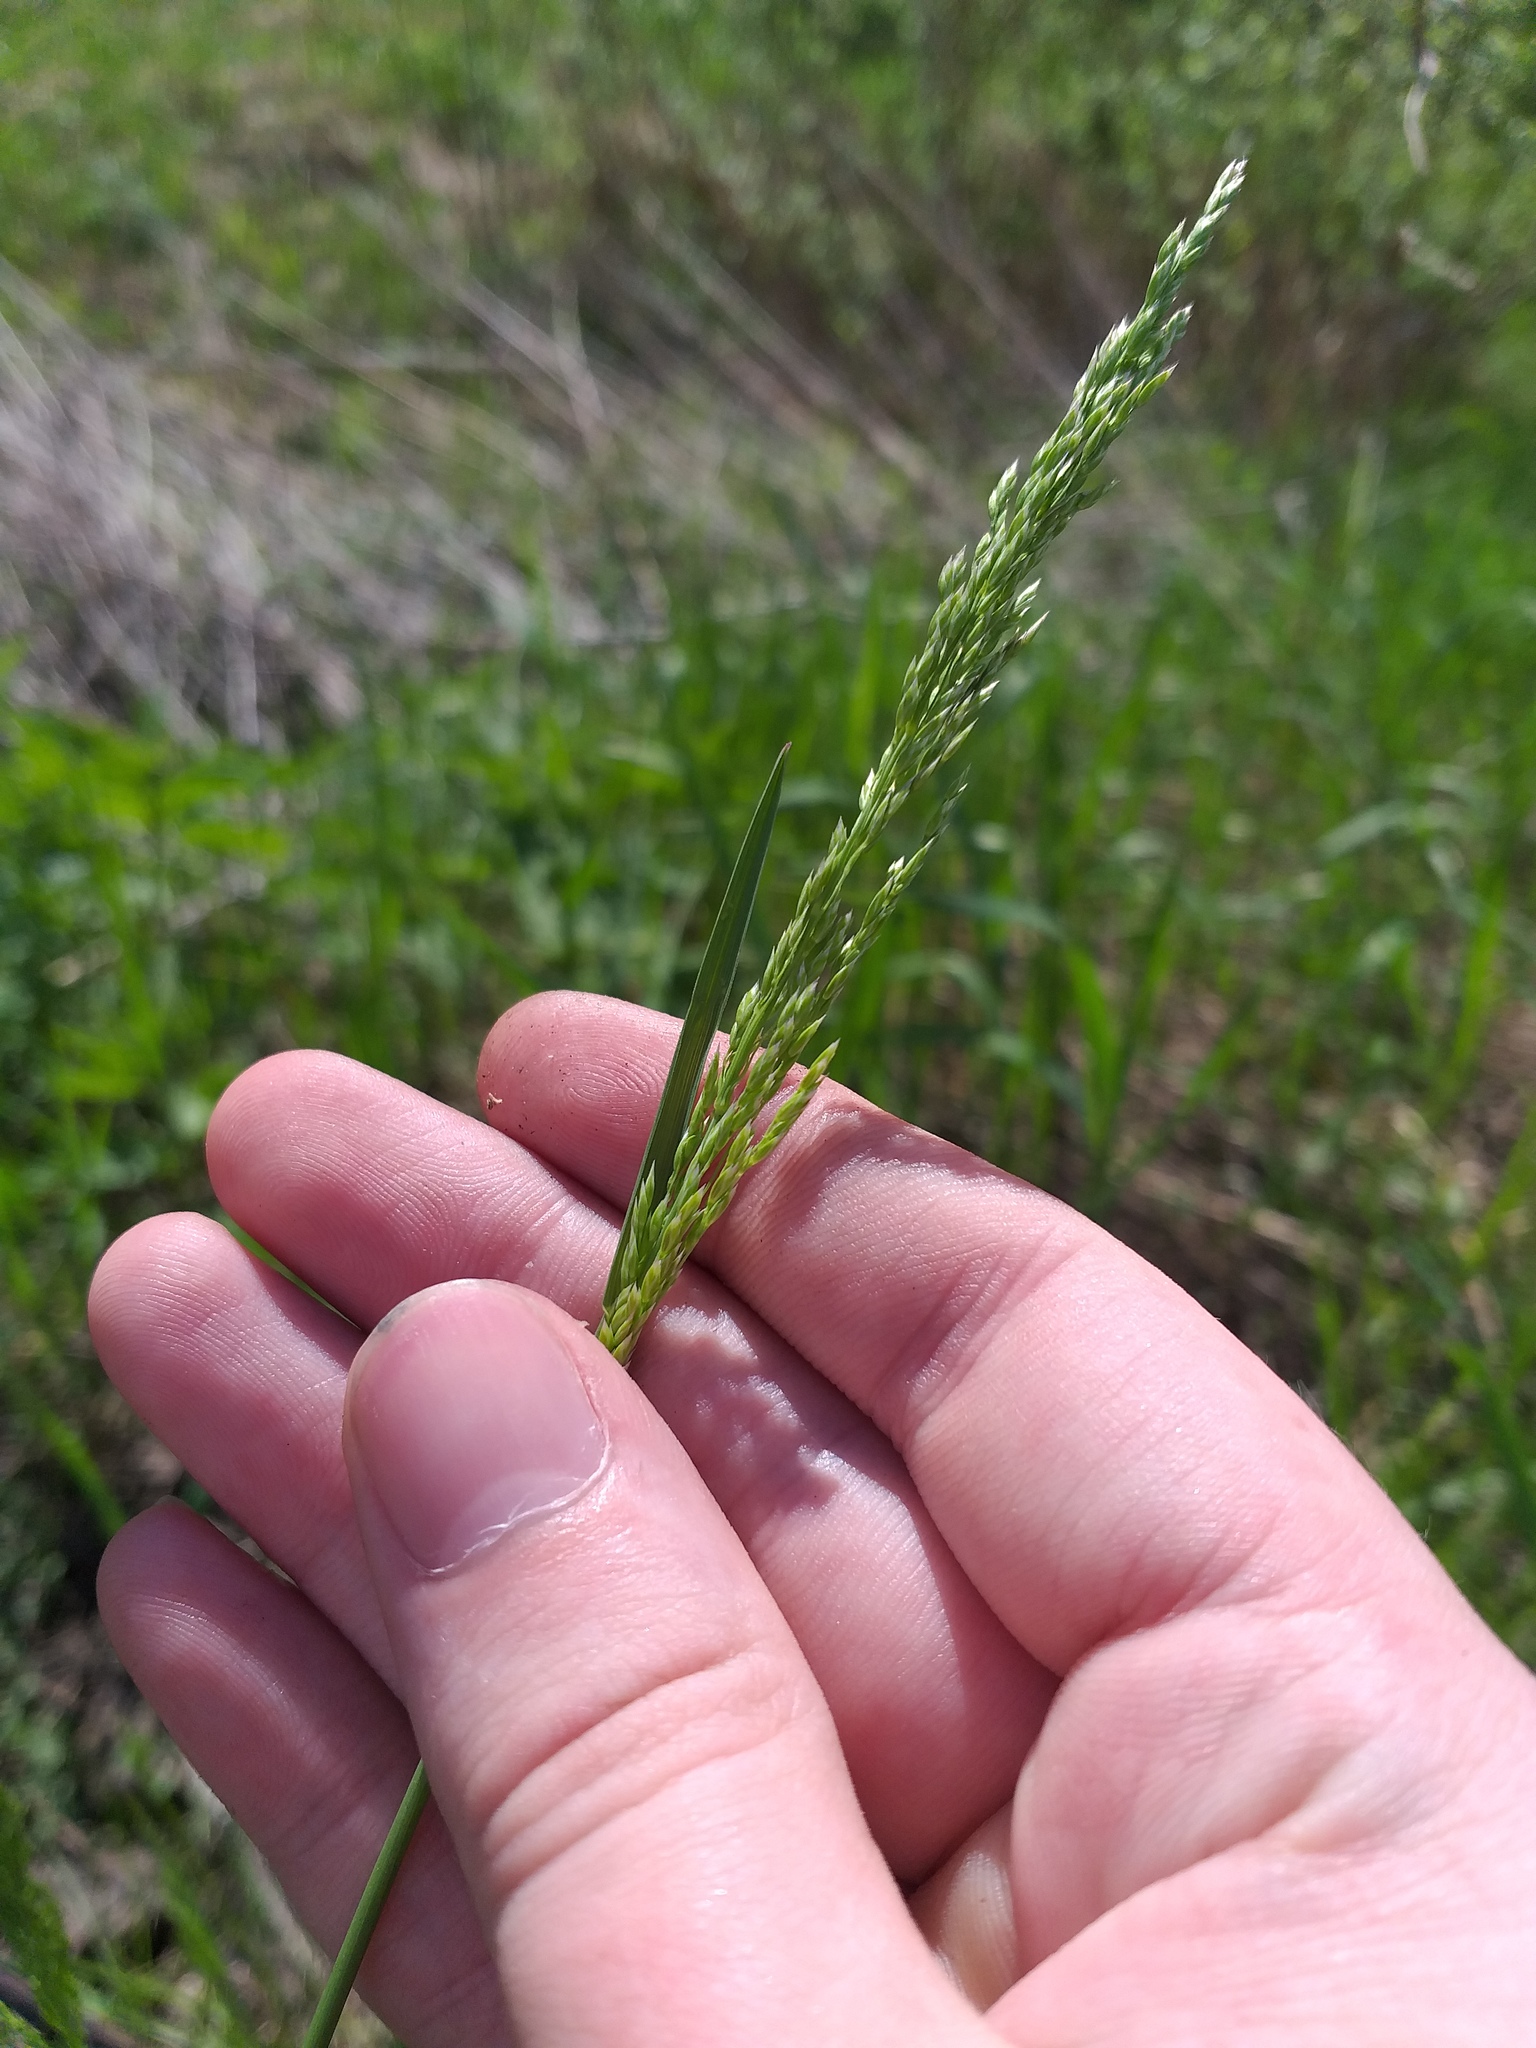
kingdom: Plantae
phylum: Tracheophyta
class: Liliopsida
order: Poales
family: Poaceae
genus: Poa
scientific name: Poa angustifolia
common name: Narrow-leaved meadow-grass
